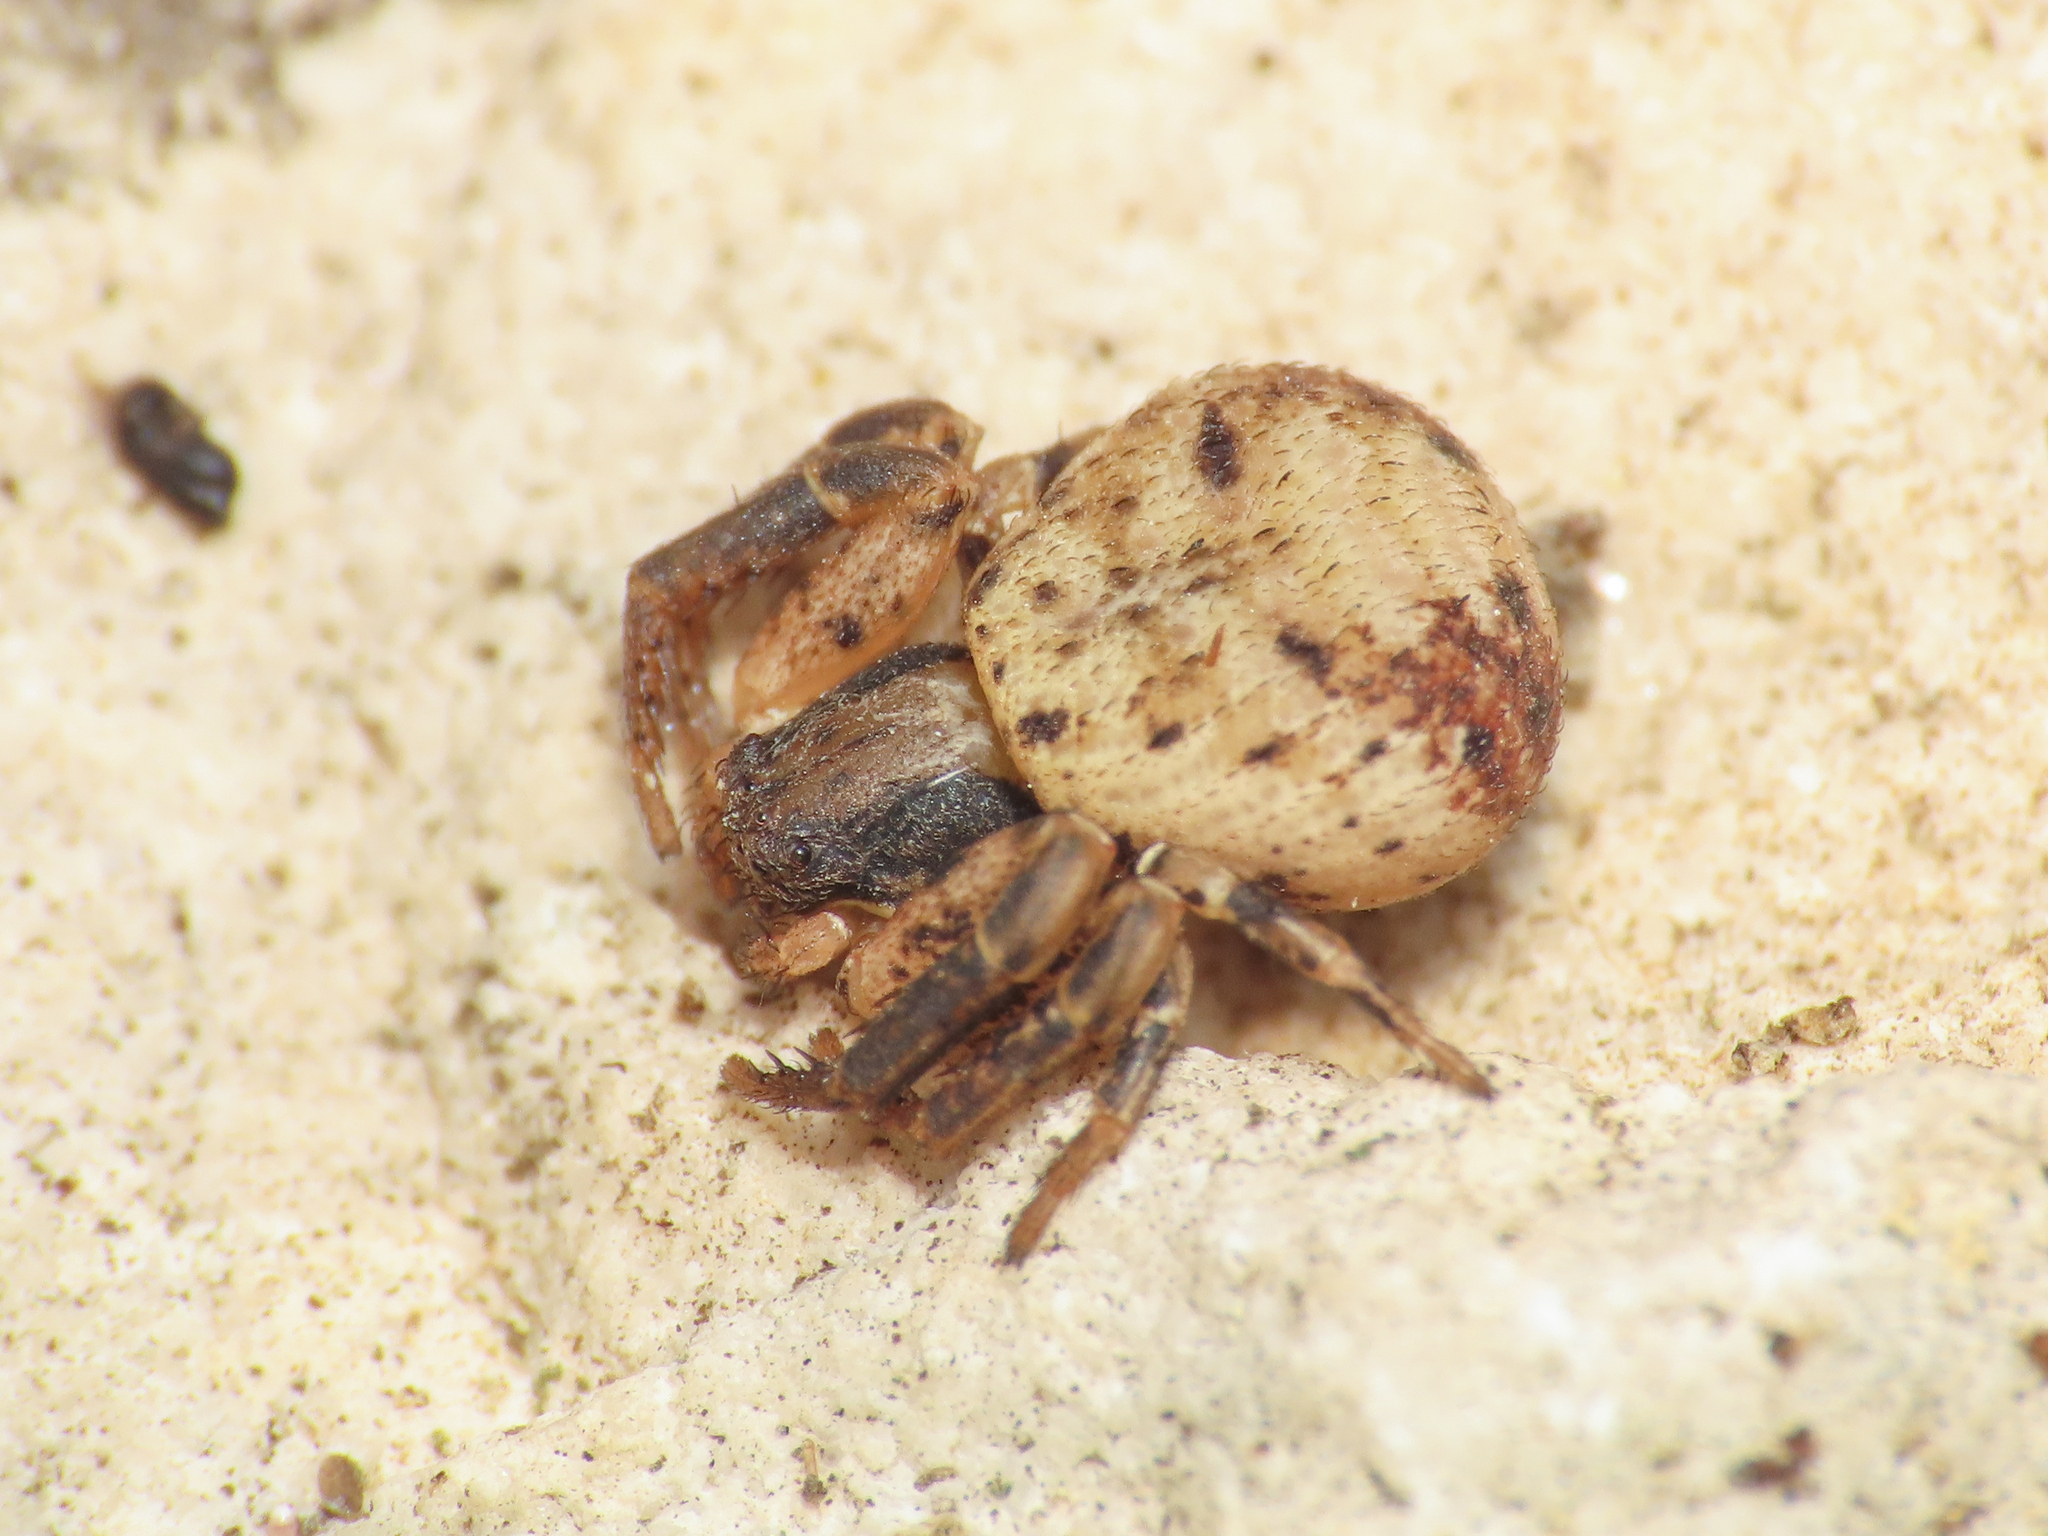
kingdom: Animalia
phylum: Arthropoda
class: Arachnida
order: Araneae
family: Thomisidae
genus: Ozyptila
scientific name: Ozyptila confluens
